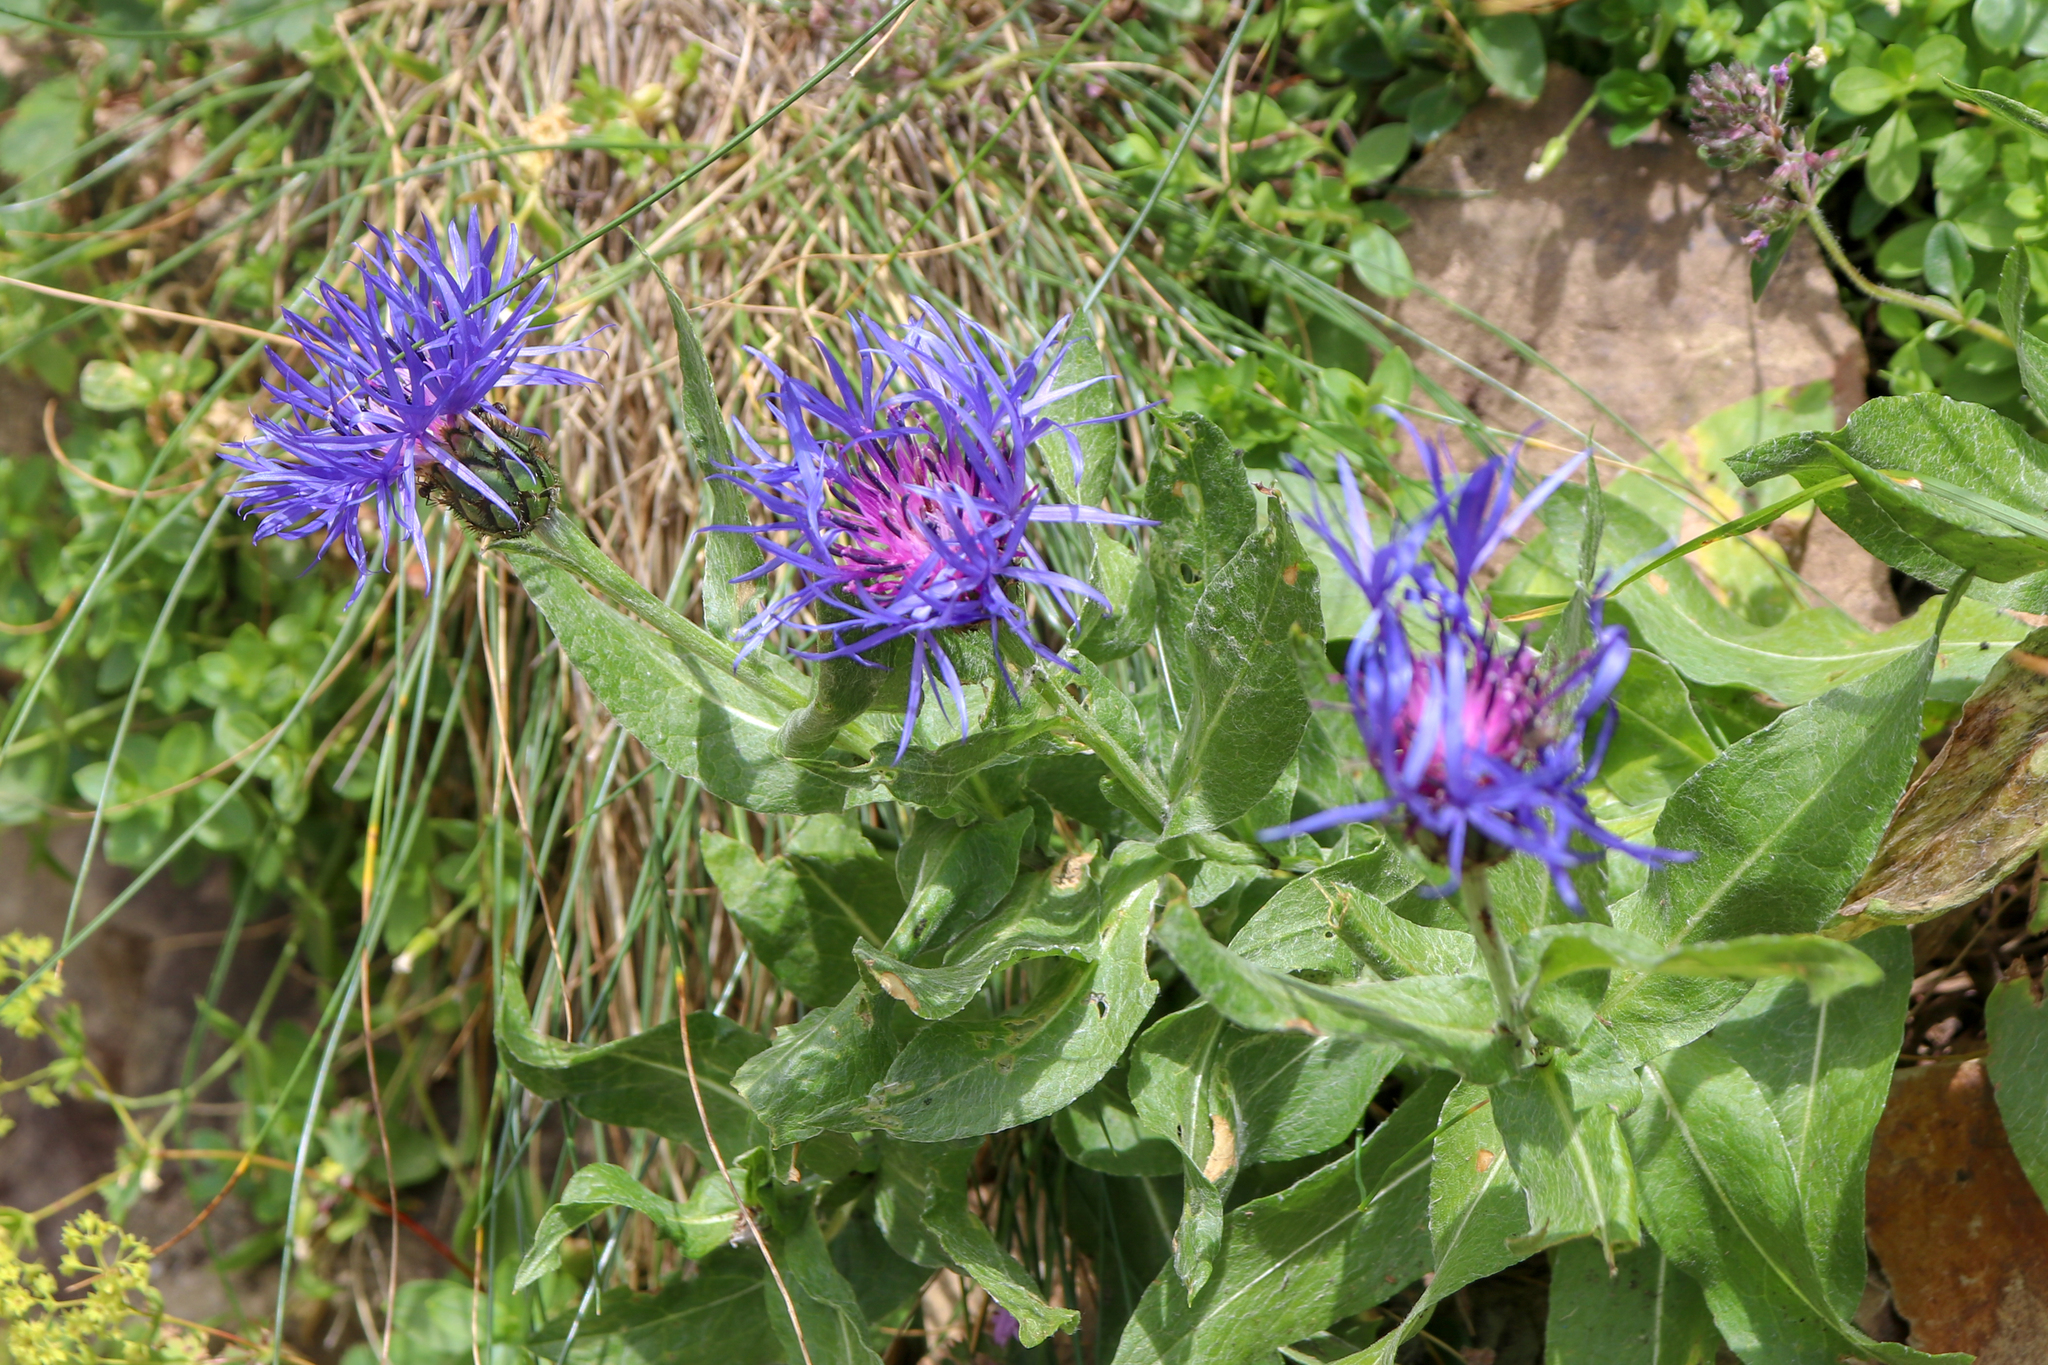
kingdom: Plantae
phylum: Tracheophyta
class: Magnoliopsida
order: Asterales
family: Asteraceae
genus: Centaurea
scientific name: Centaurea nigrofimbria
